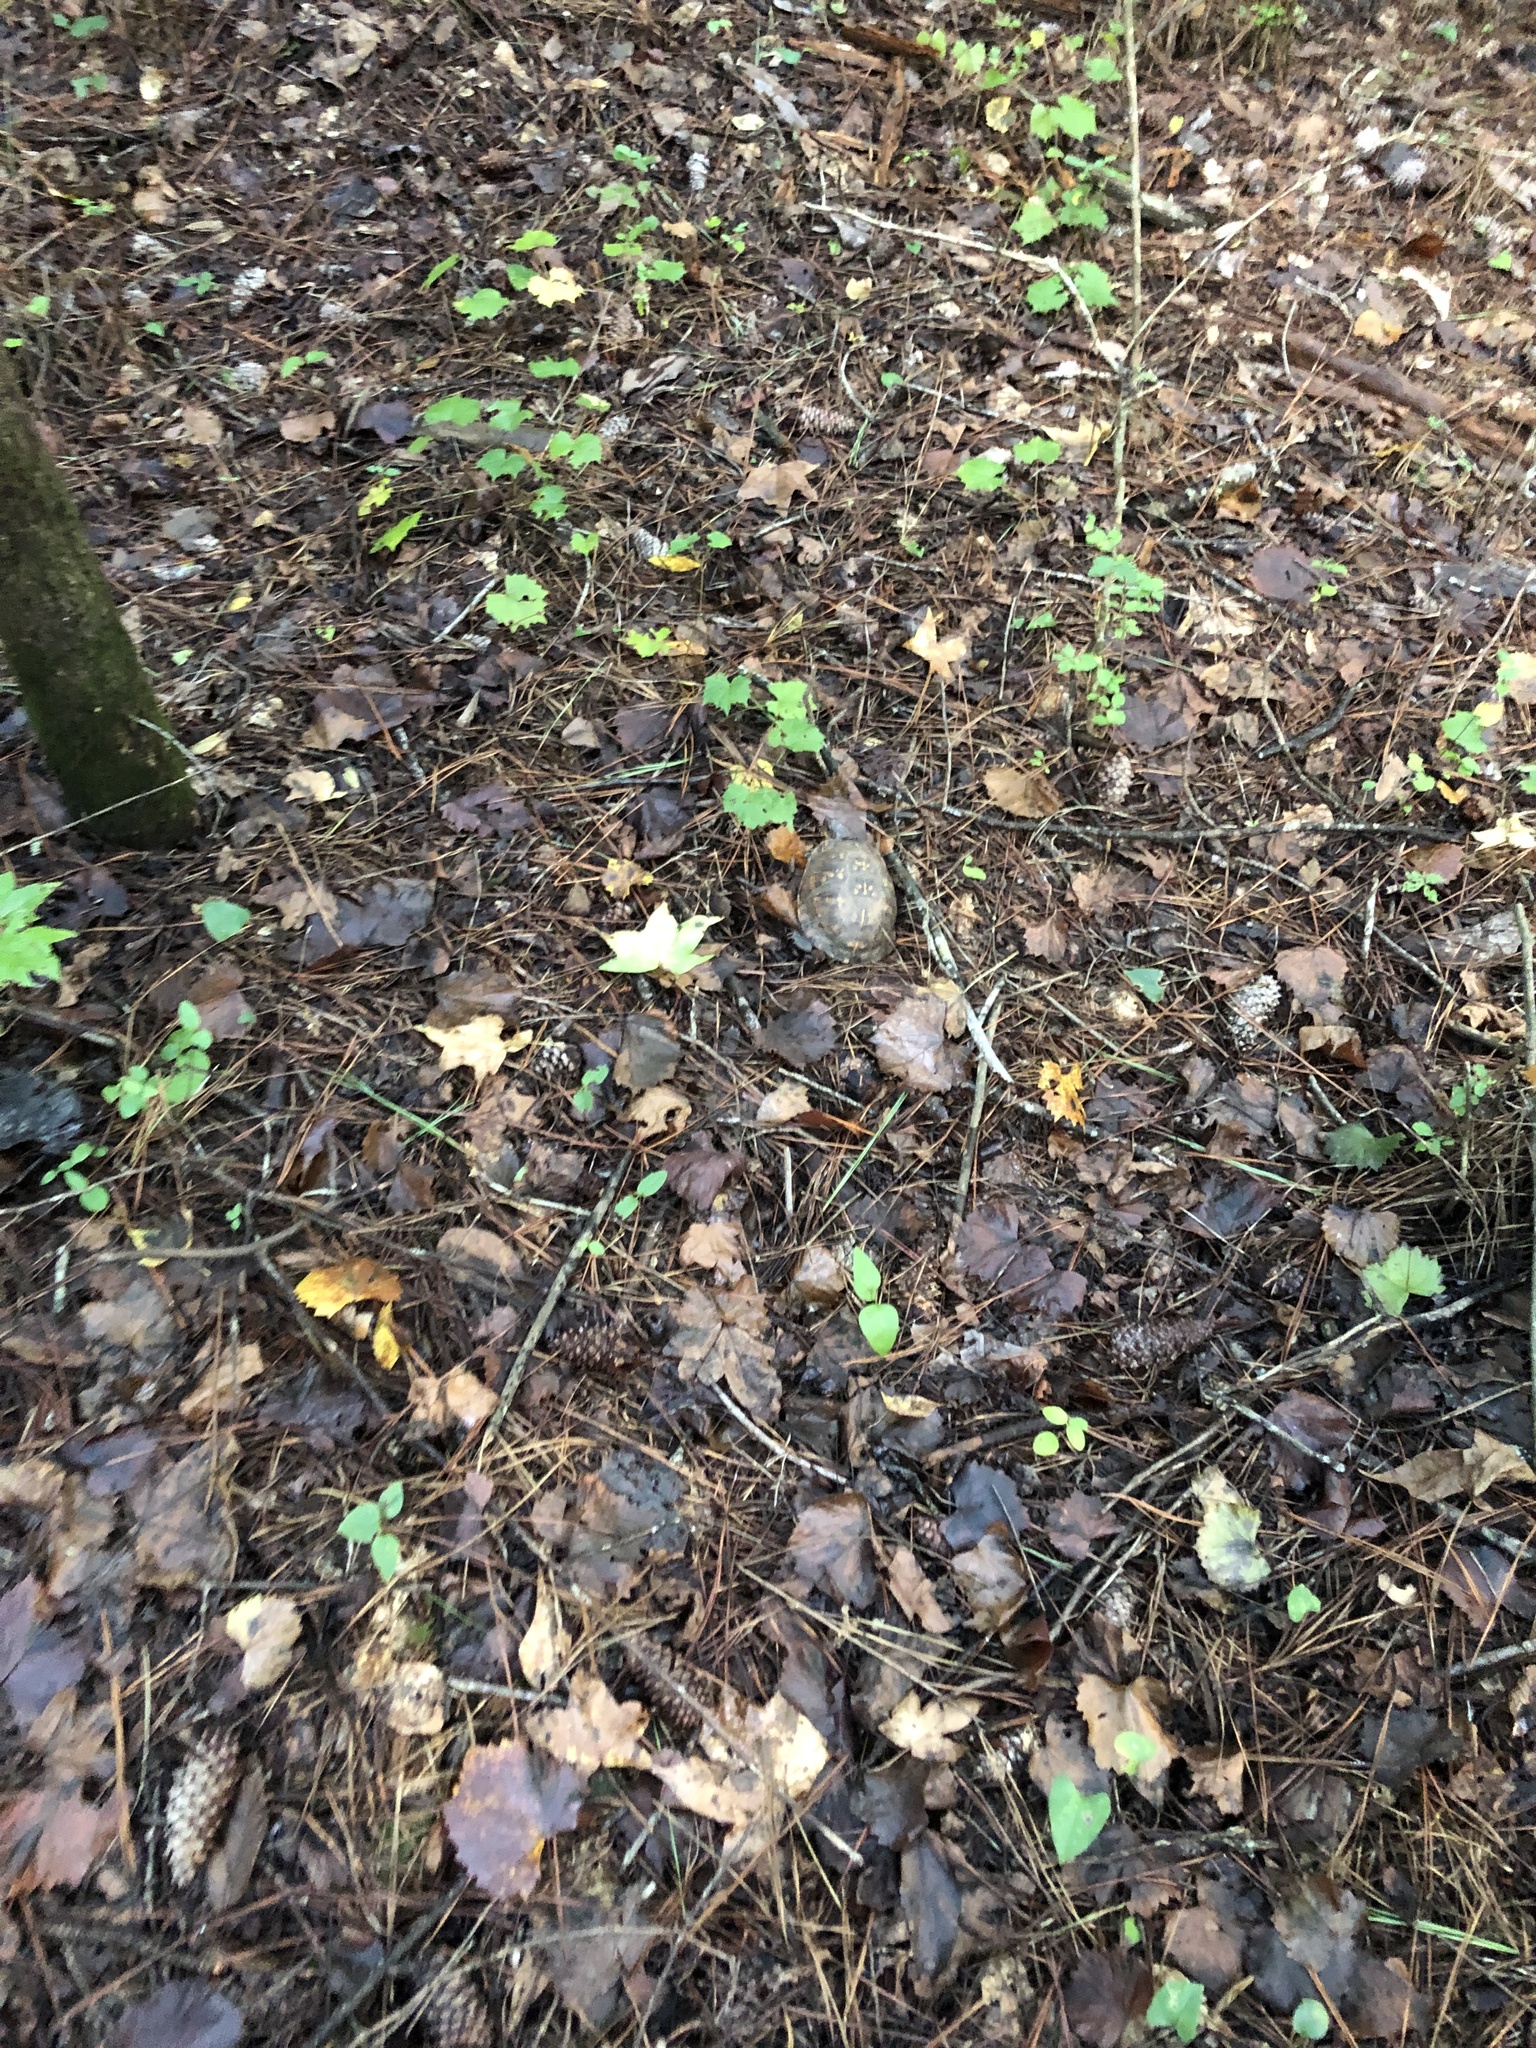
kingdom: Animalia
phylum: Chordata
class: Testudines
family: Emydidae
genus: Terrapene
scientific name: Terrapene carolina
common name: Common box turtle
